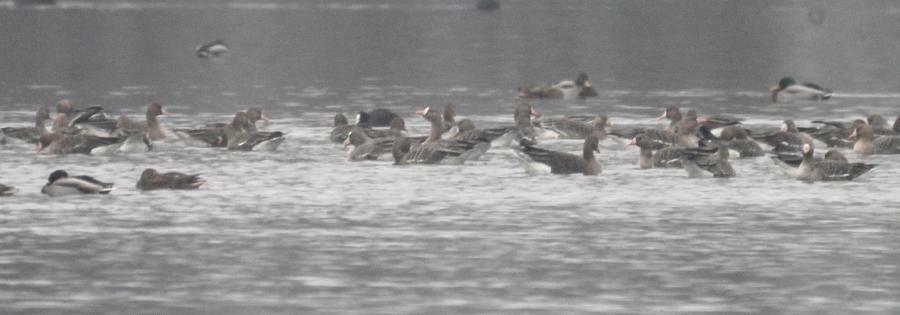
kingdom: Animalia
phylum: Chordata
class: Aves
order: Anseriformes
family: Anatidae
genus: Anser
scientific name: Anser albifrons
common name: Greater white-fronted goose
